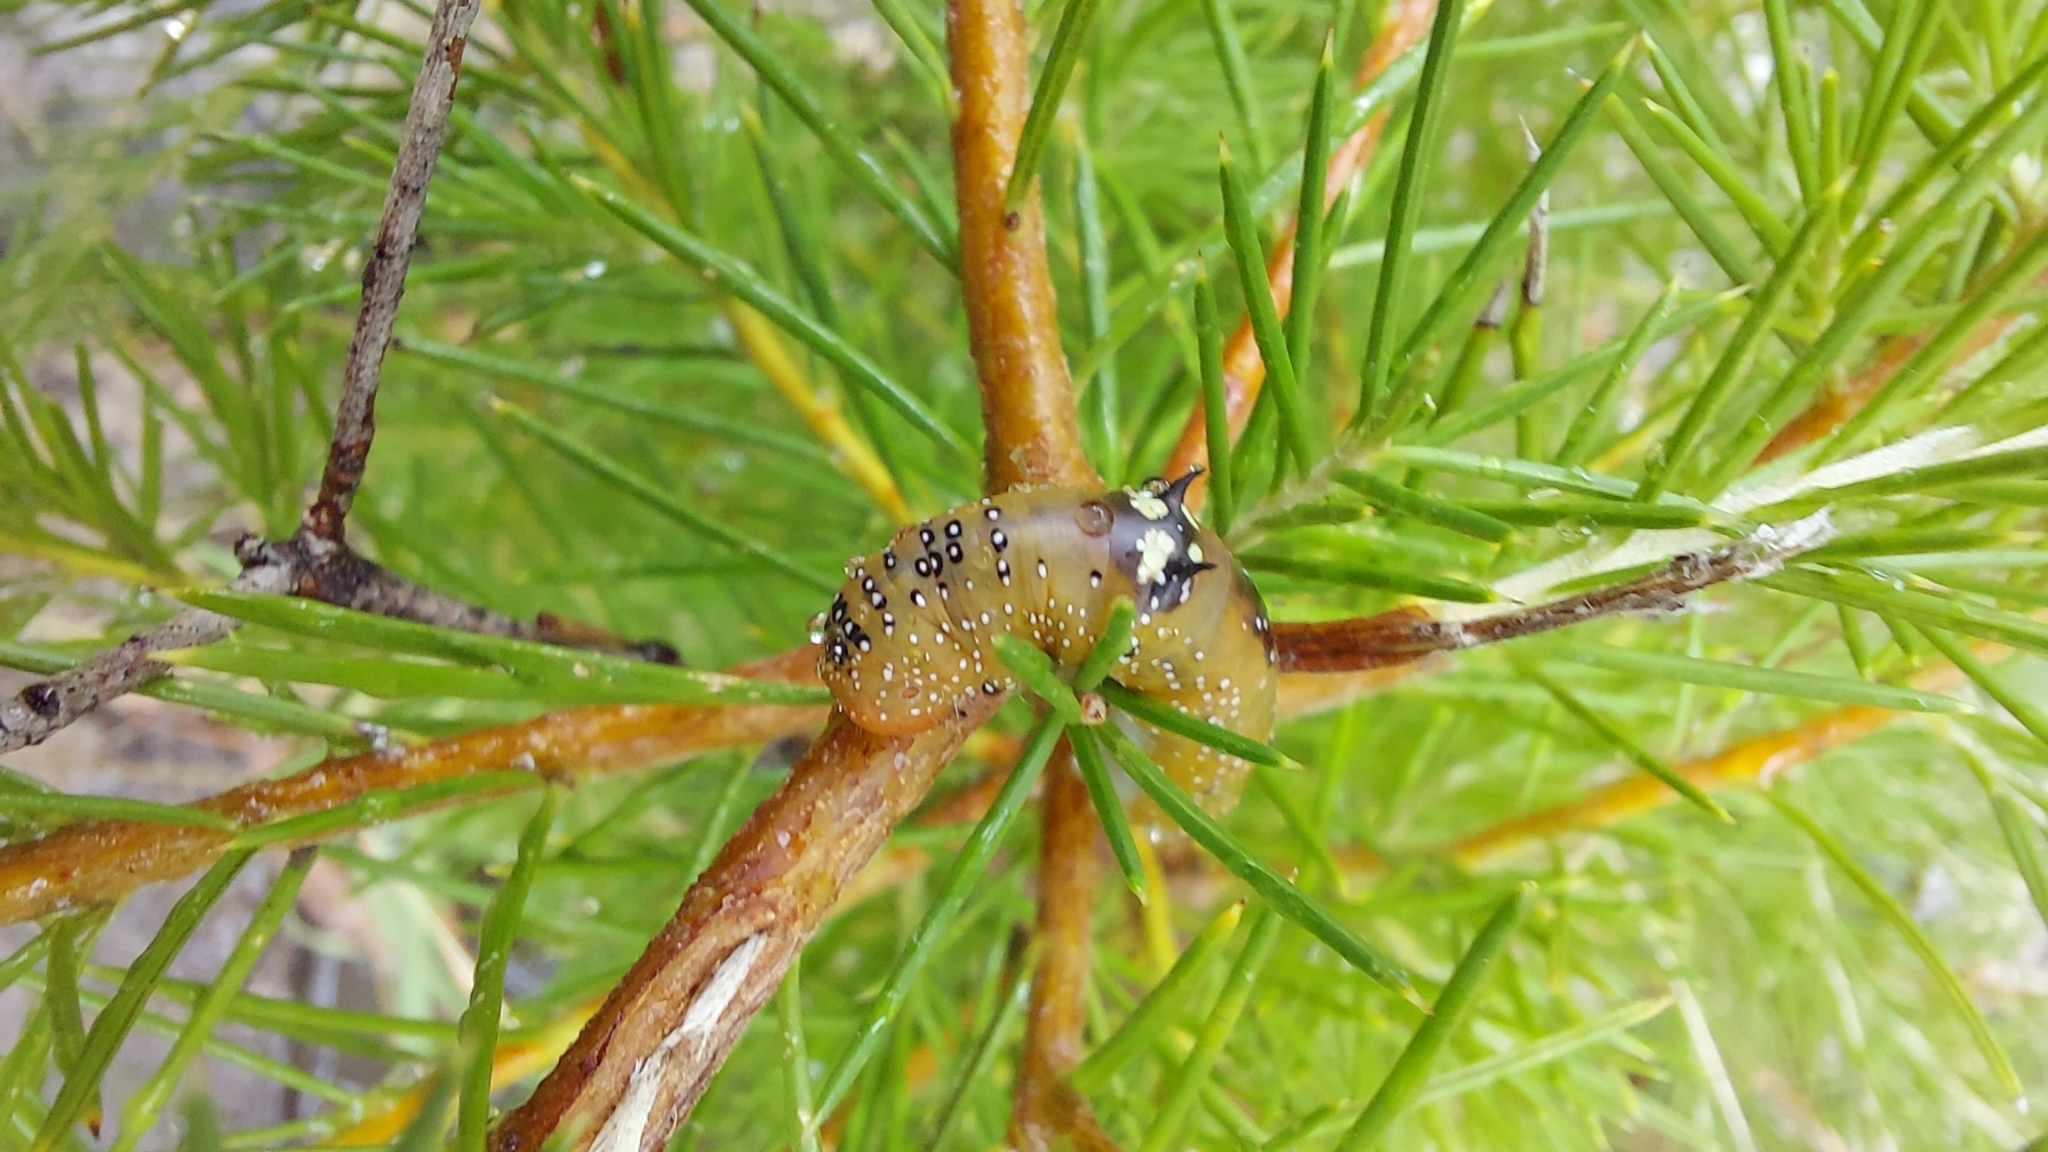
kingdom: Animalia
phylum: Arthropoda
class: Insecta
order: Lepidoptera
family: Geometridae
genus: Oenochroma
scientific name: Oenochroma vinaria
